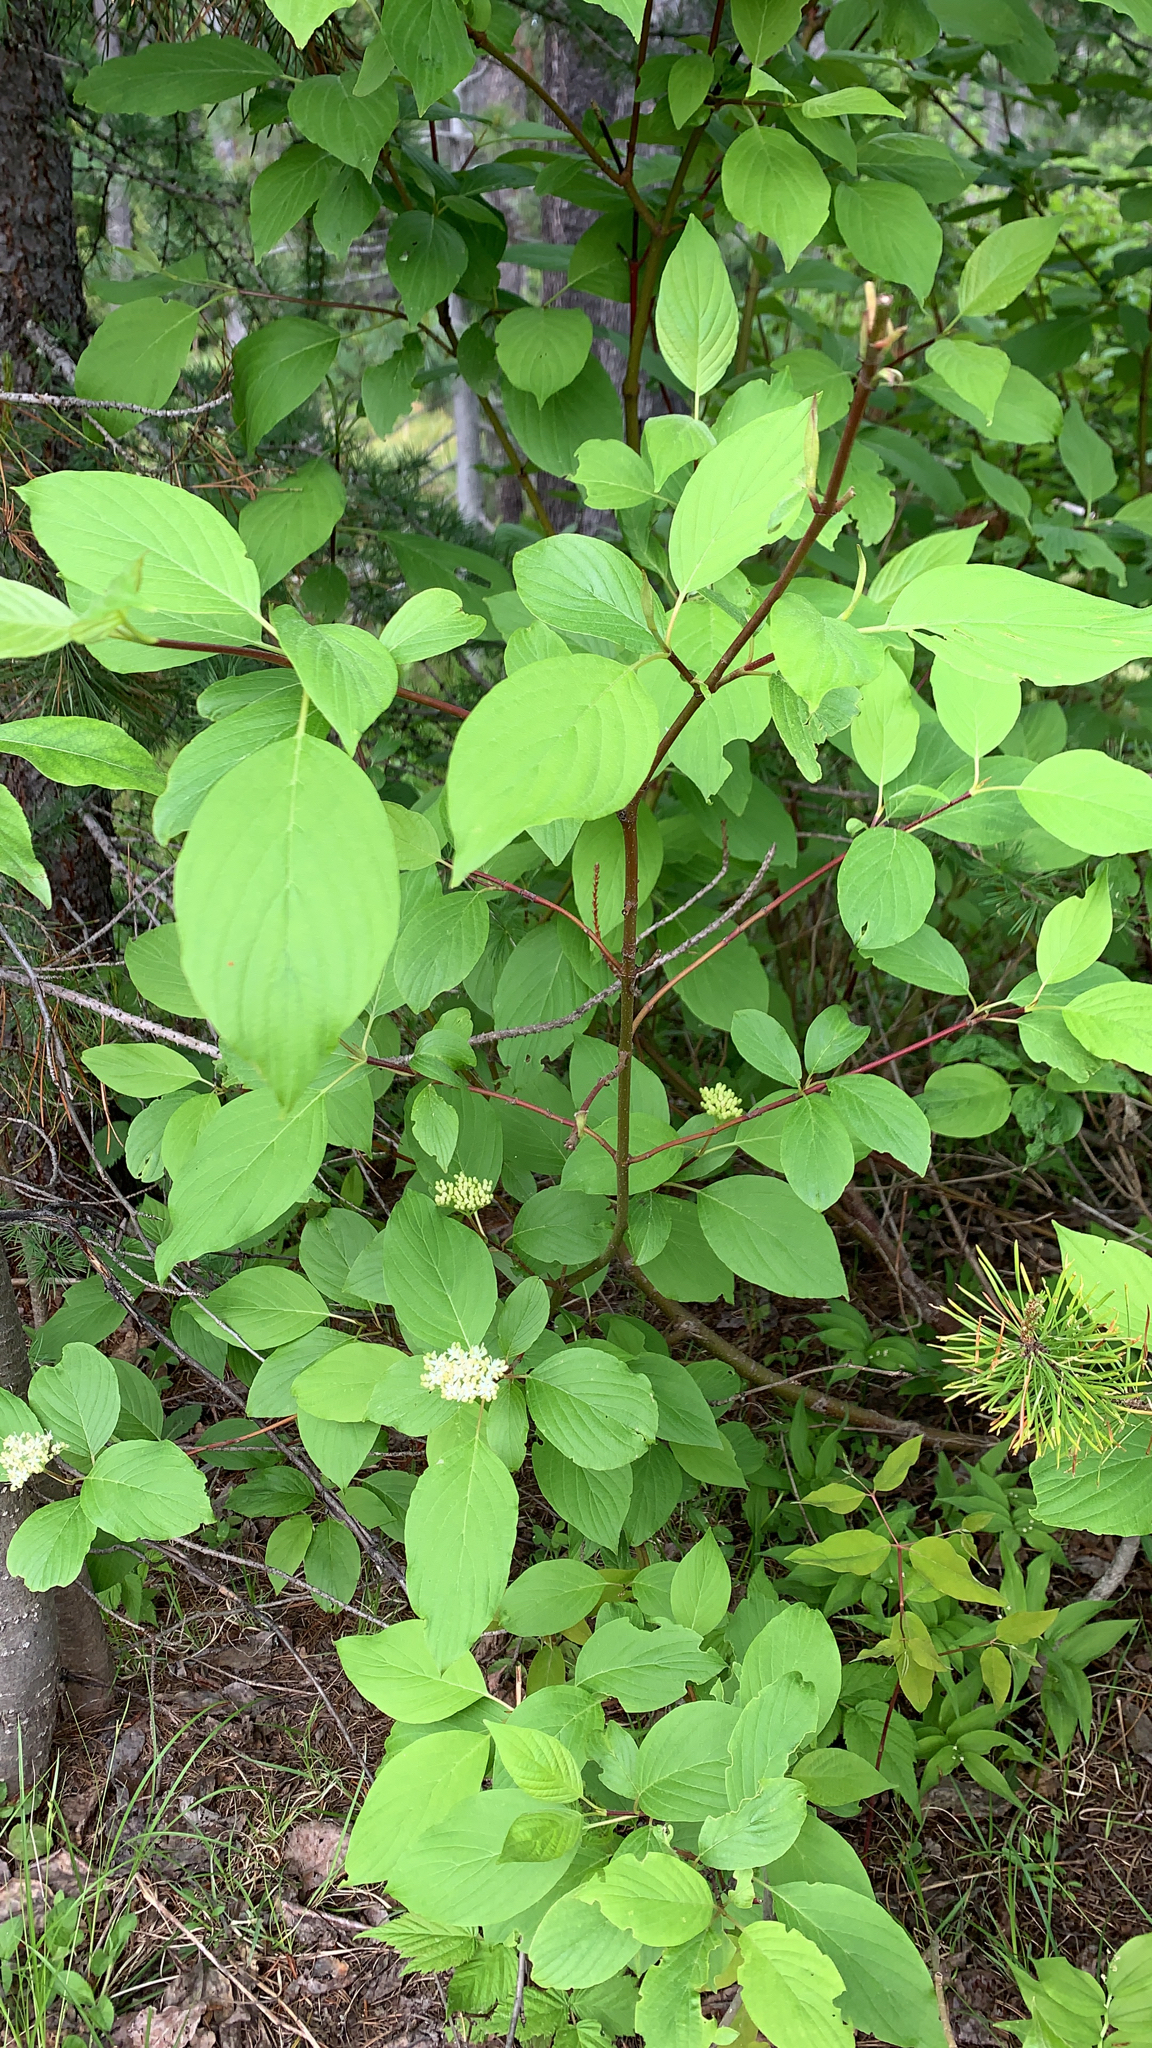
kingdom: Plantae
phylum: Tracheophyta
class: Magnoliopsida
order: Cornales
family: Cornaceae
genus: Cornus
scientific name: Cornus sericea
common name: Red-osier dogwood
